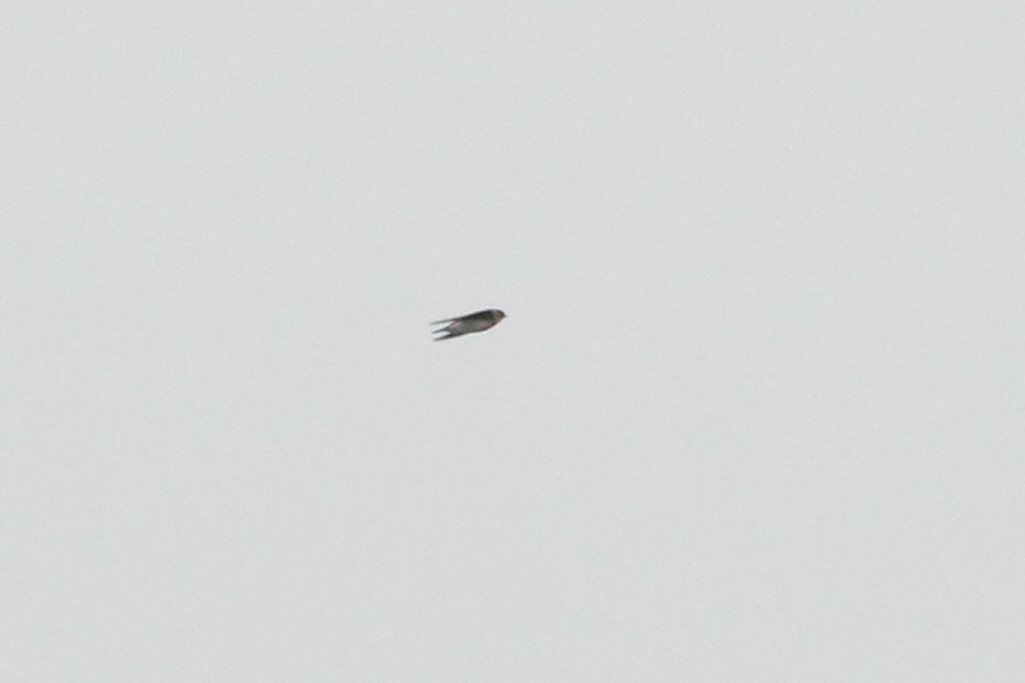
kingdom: Animalia
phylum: Chordata
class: Aves
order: Passeriformes
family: Hirundinidae
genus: Riparia
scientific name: Riparia riparia
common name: Sand martin
